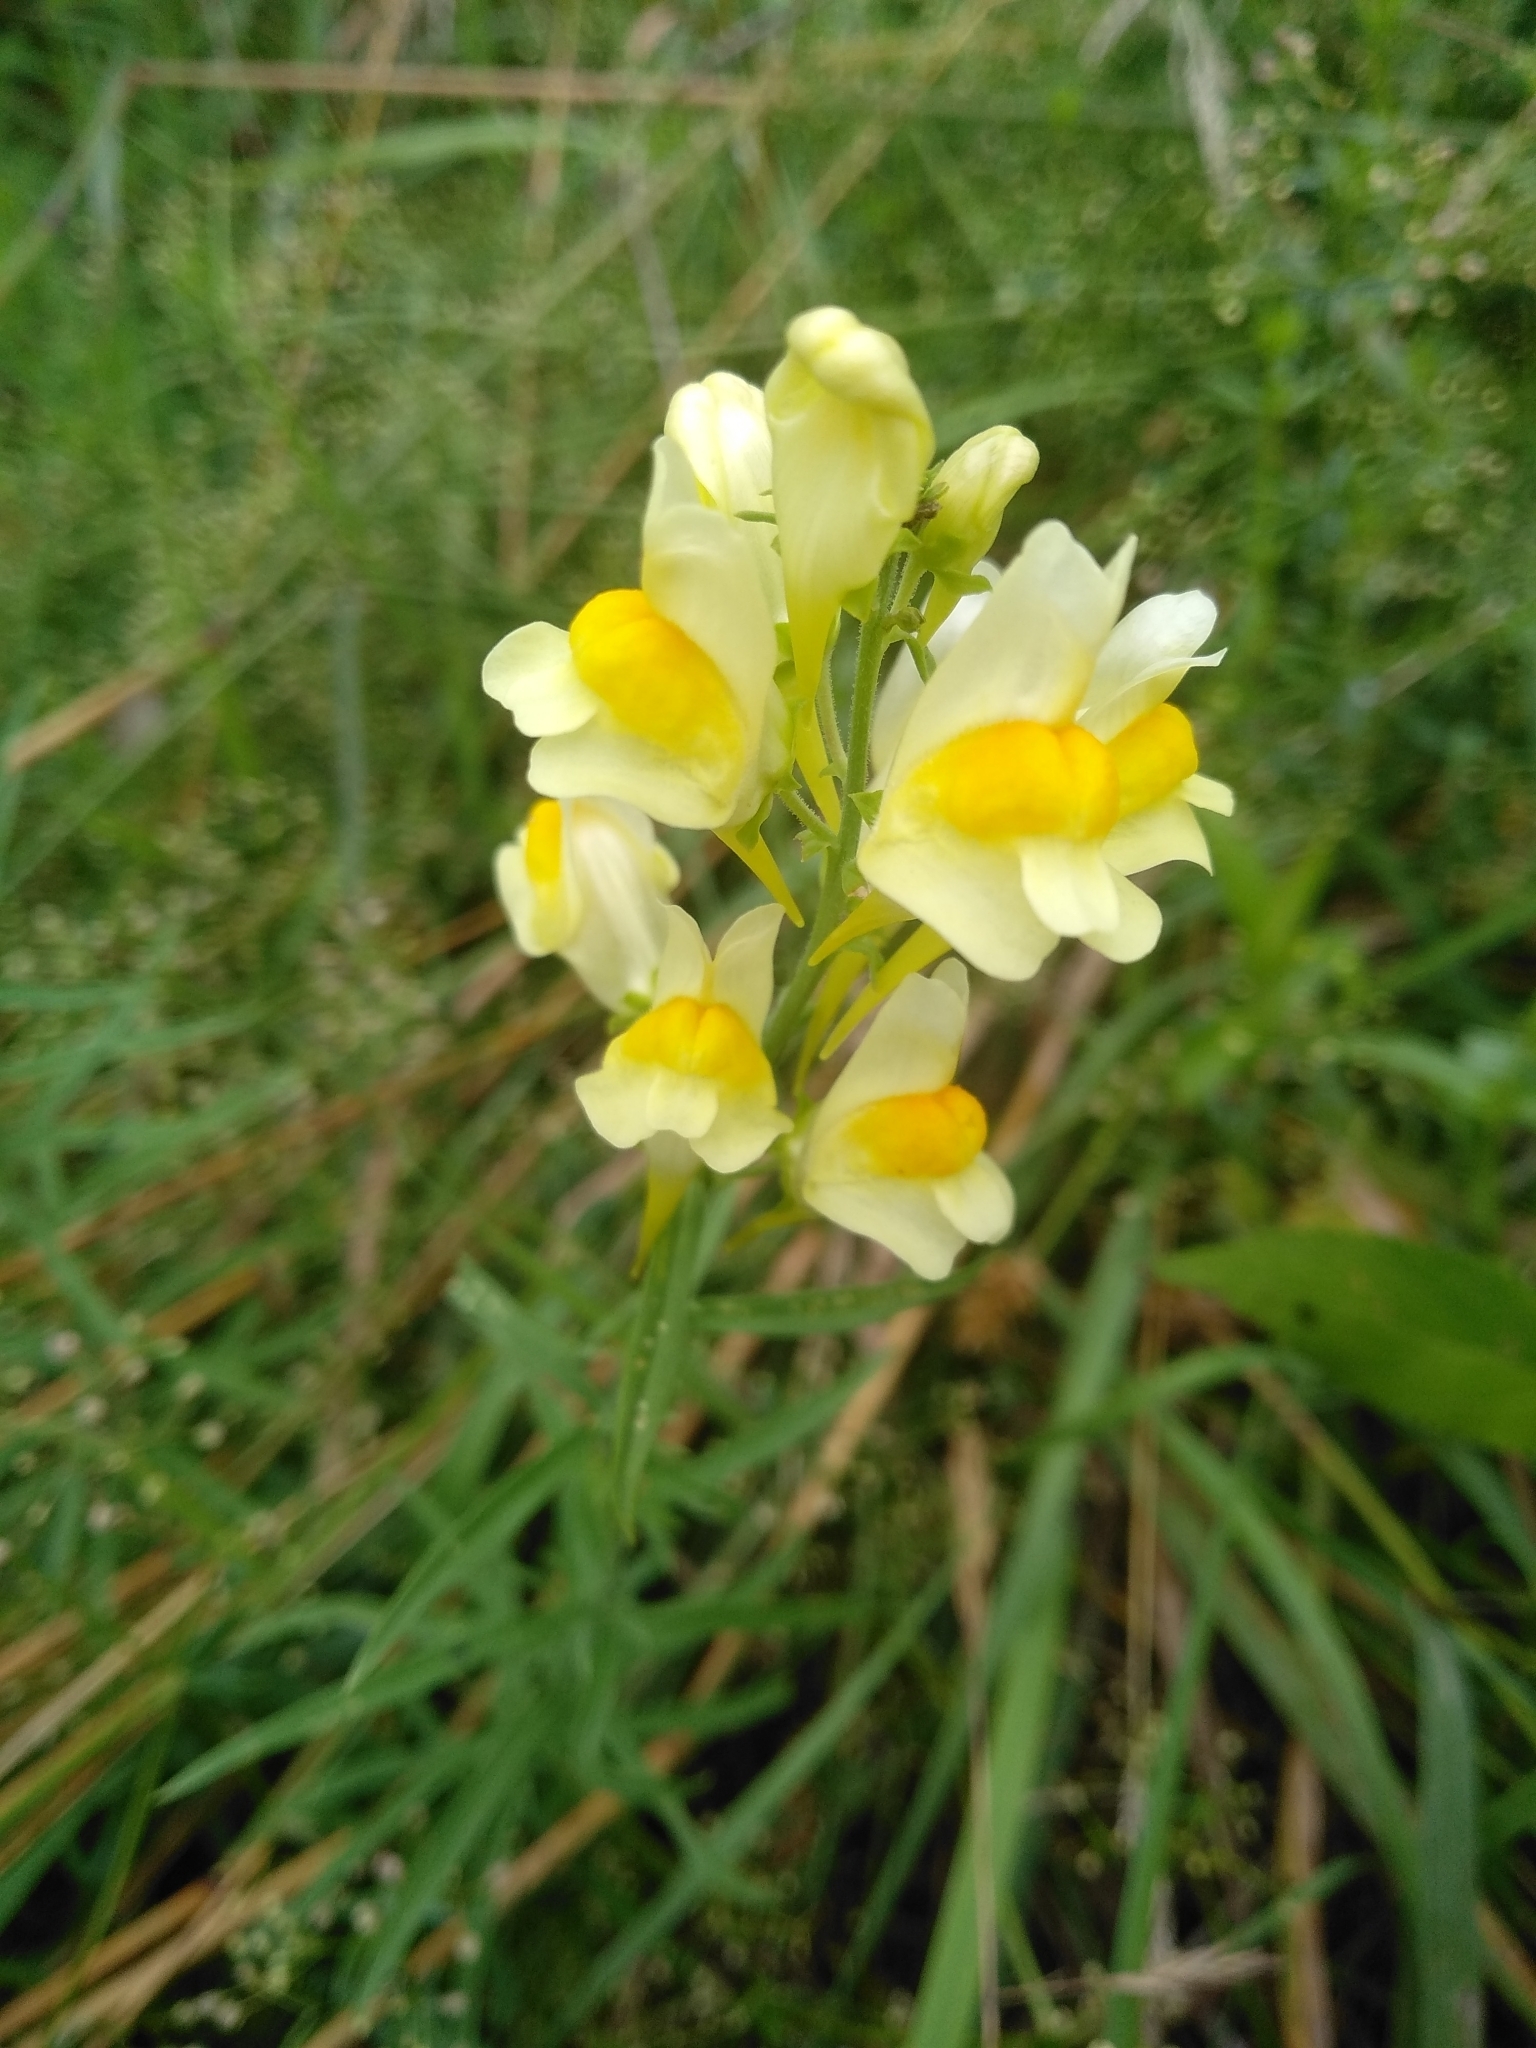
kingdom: Plantae
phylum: Tracheophyta
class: Magnoliopsida
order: Lamiales
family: Plantaginaceae
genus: Linaria
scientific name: Linaria vulgaris
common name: Butter and eggs
